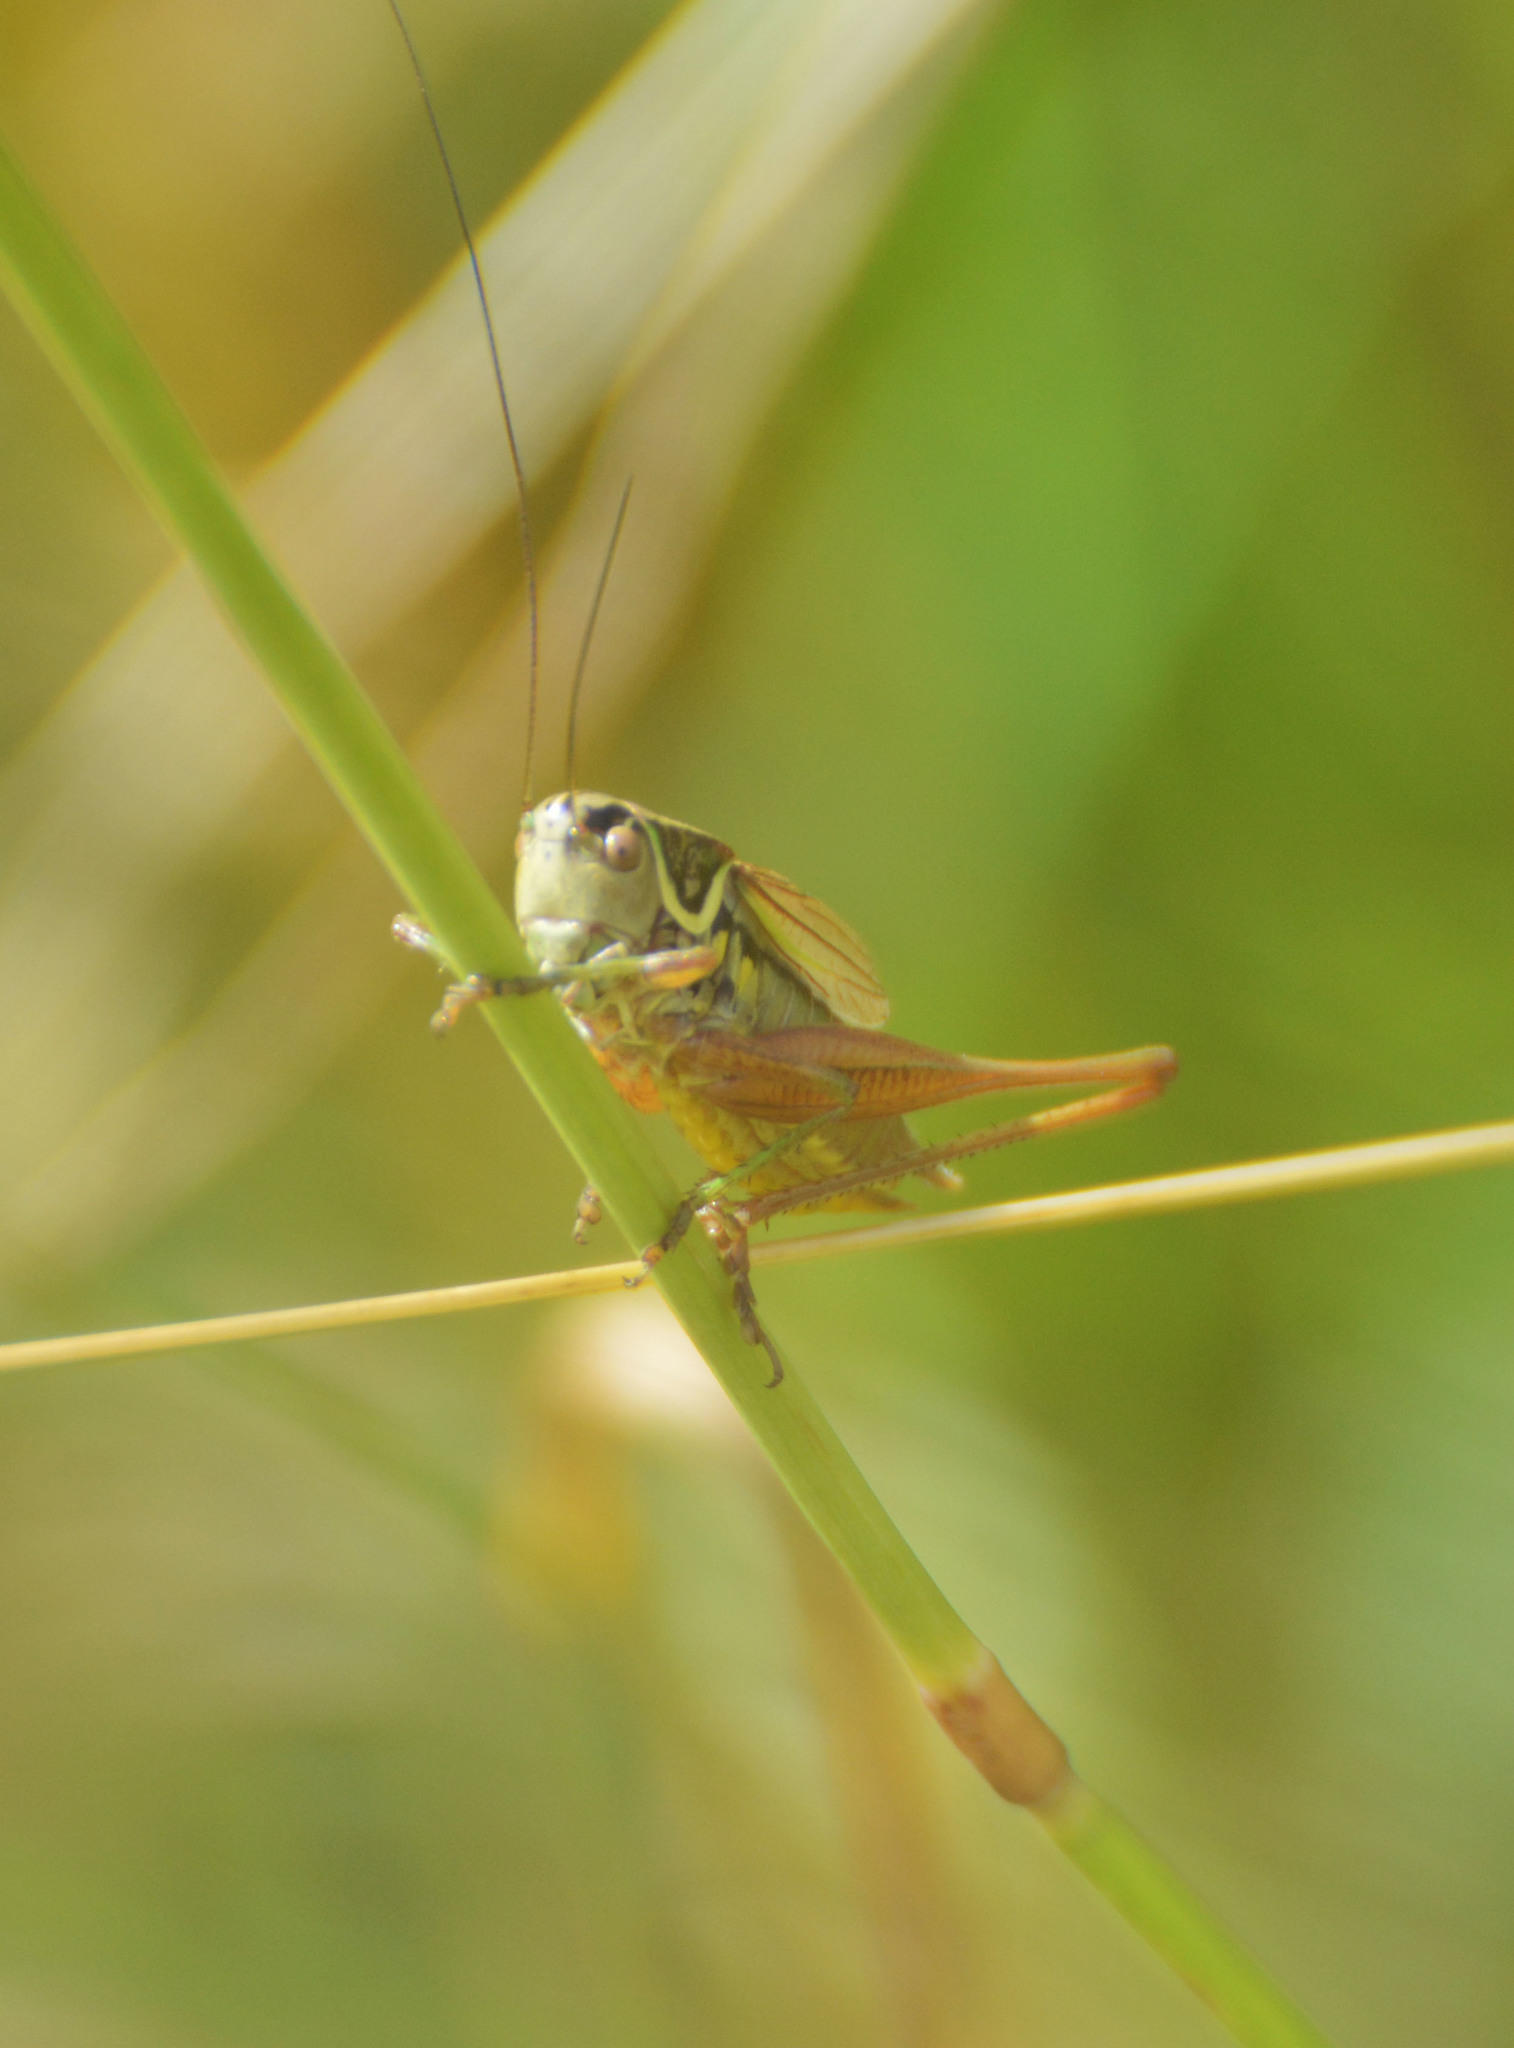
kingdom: Animalia
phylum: Arthropoda
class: Insecta
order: Orthoptera
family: Tettigoniidae
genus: Roeseliana
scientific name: Roeseliana roeselii
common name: Roesel's bush cricket
